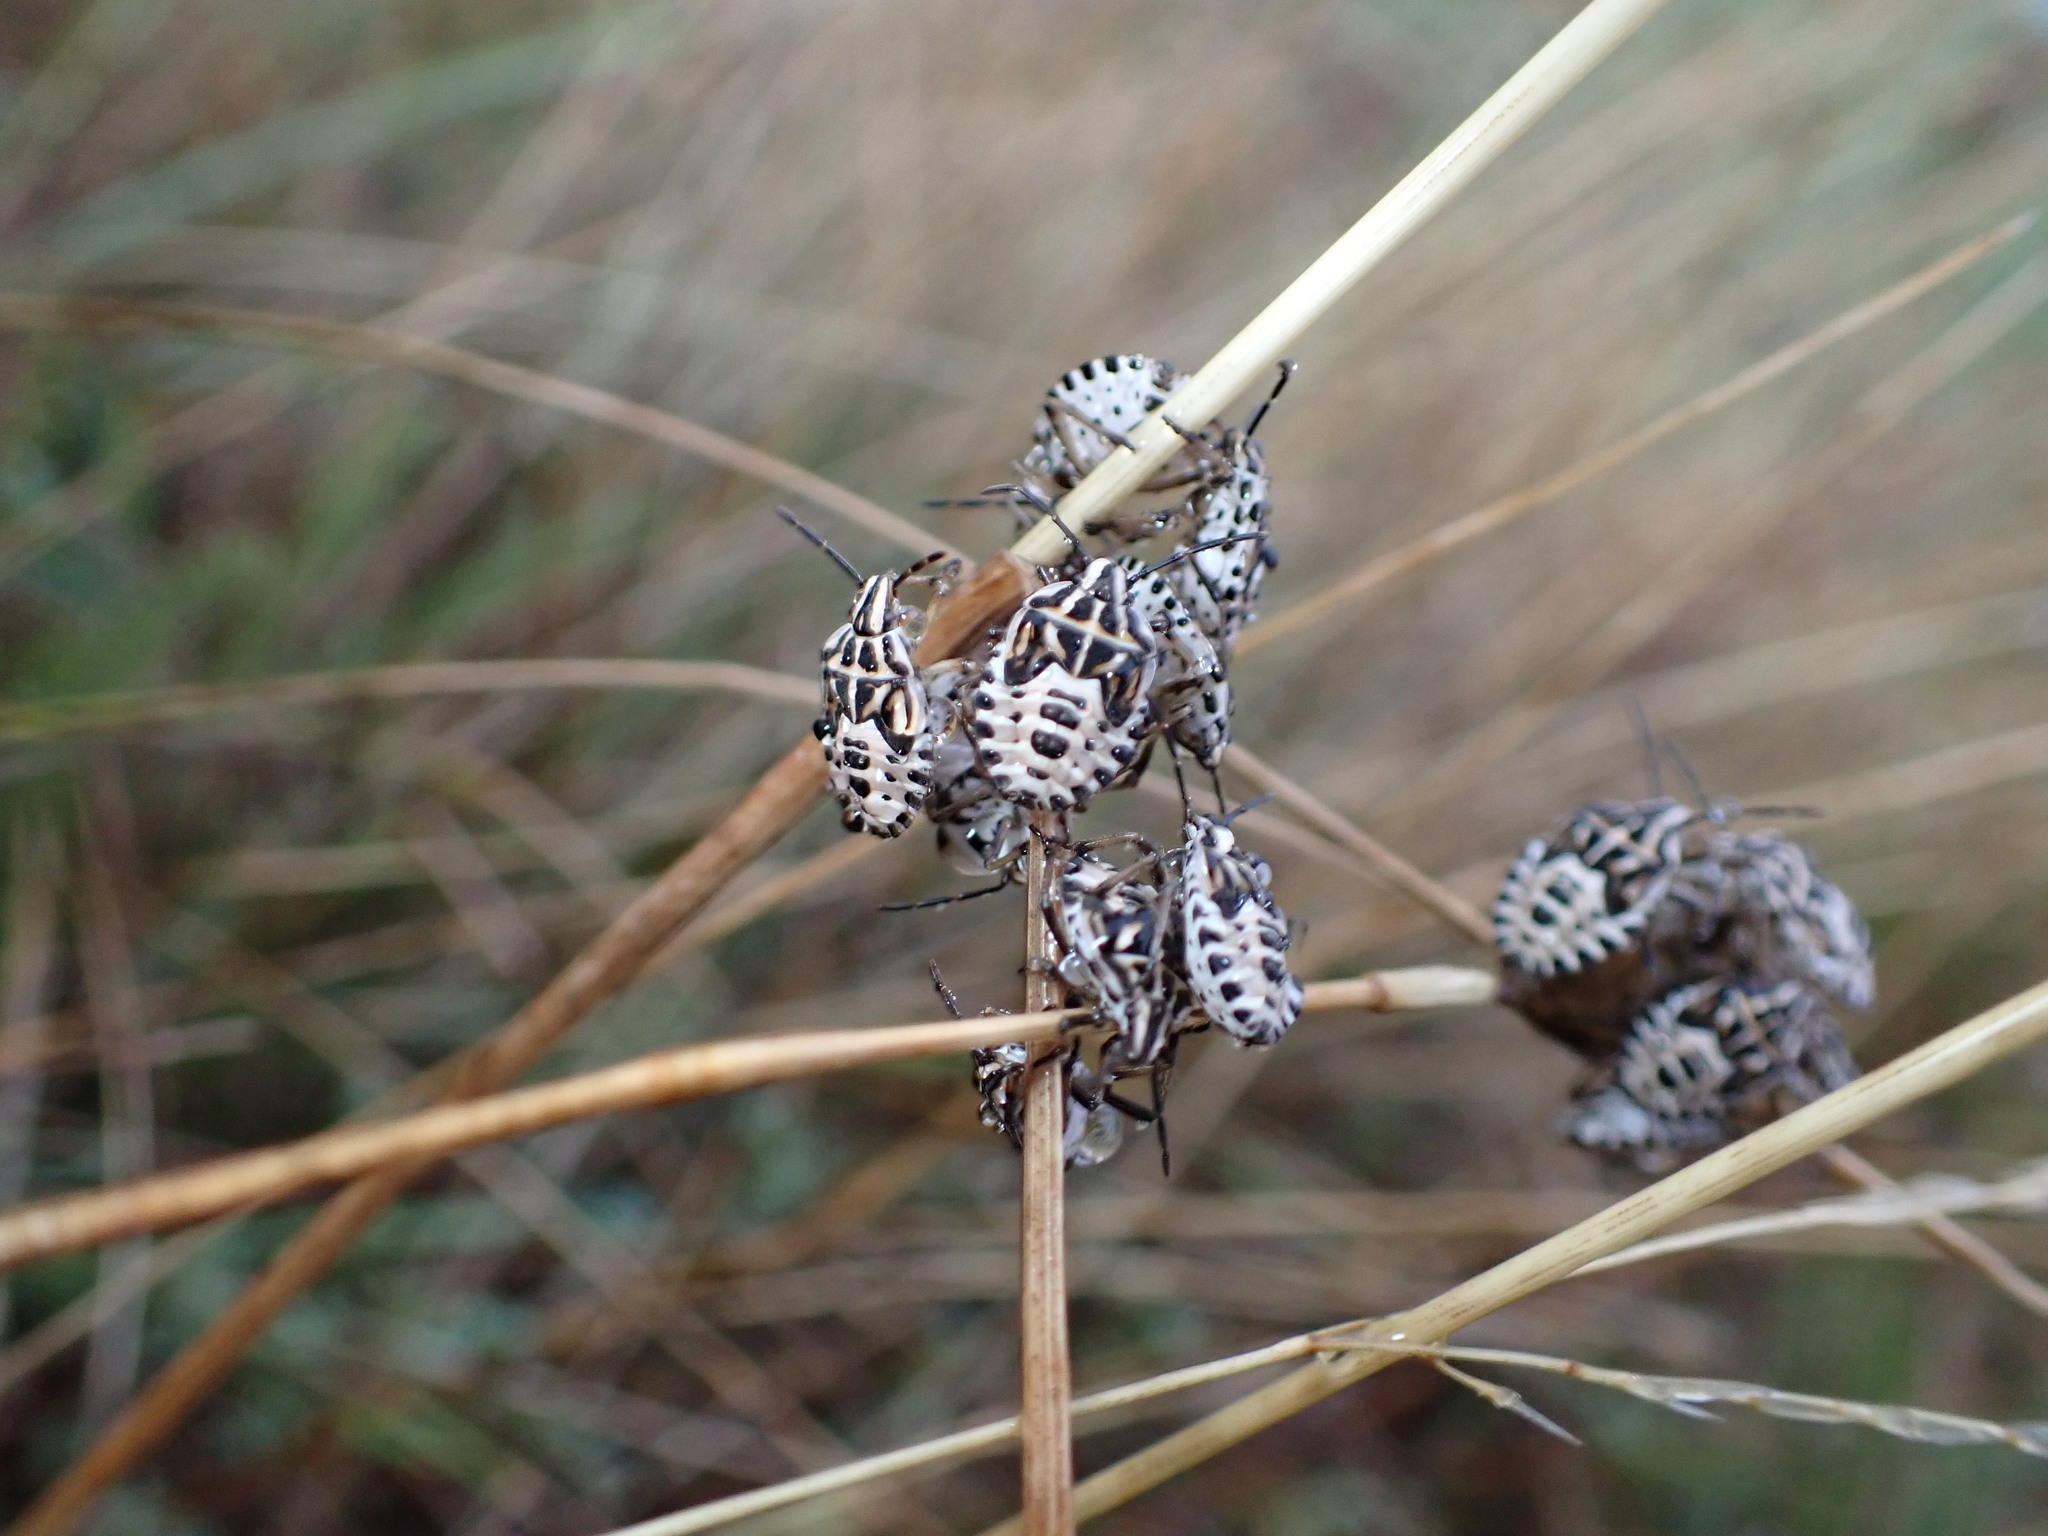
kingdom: Animalia
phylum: Arthropoda
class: Insecta
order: Hemiptera
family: Miridae
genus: Orthops
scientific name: Orthops kalmii
